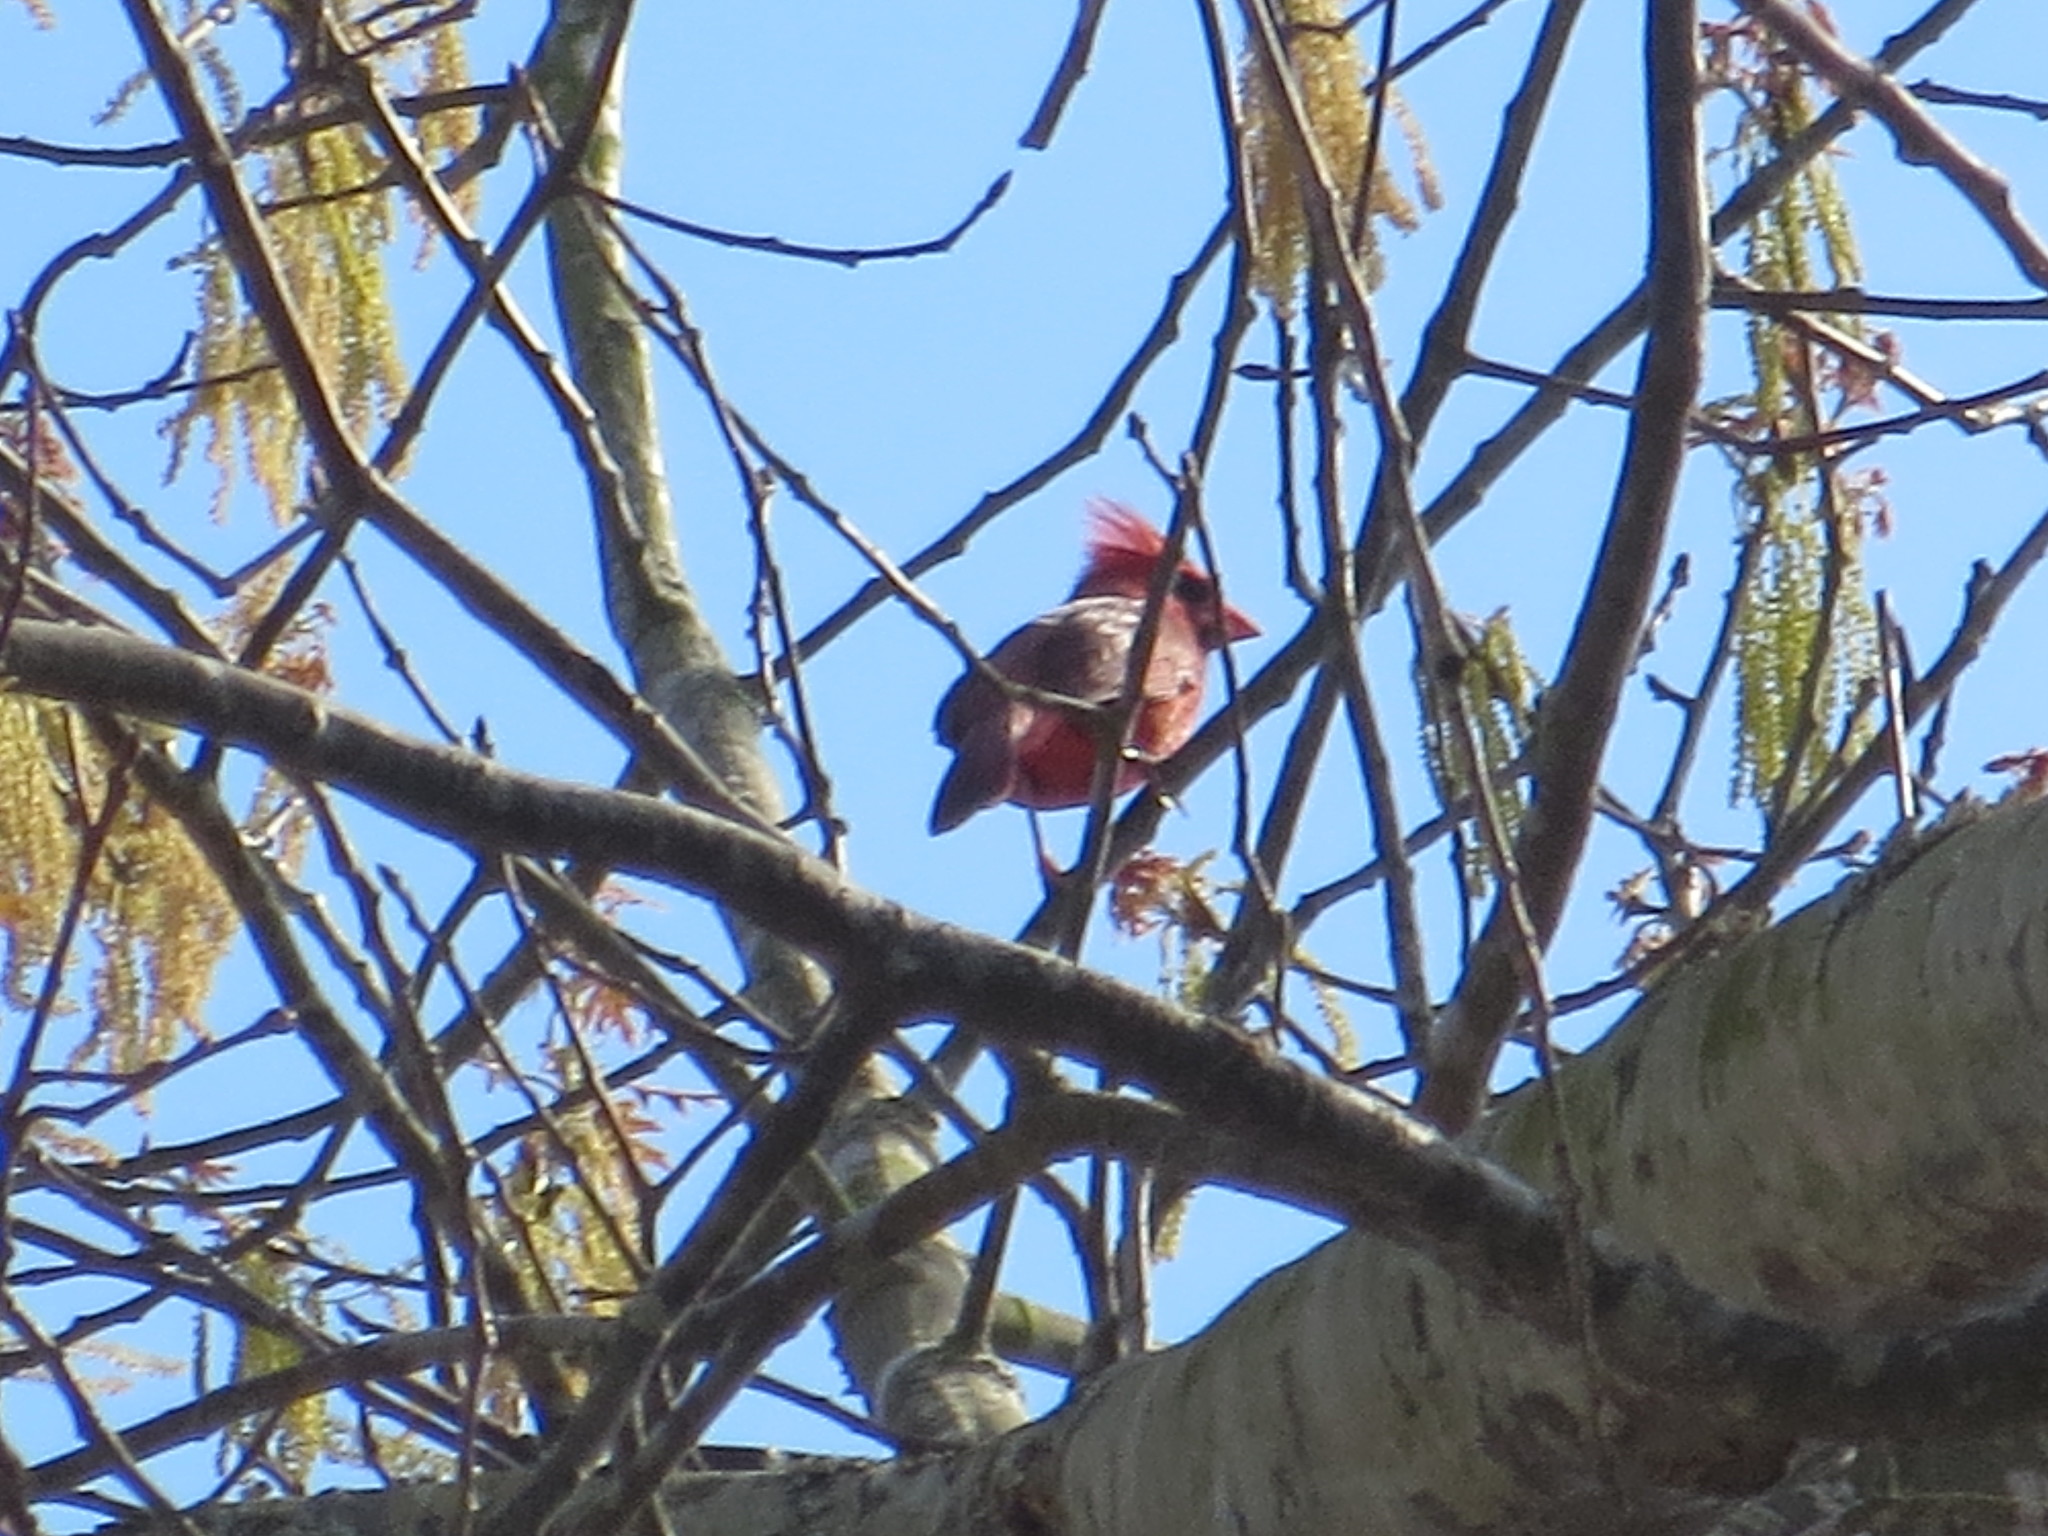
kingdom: Animalia
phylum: Chordata
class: Aves
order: Passeriformes
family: Cardinalidae
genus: Cardinalis
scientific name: Cardinalis cardinalis
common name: Northern cardinal
